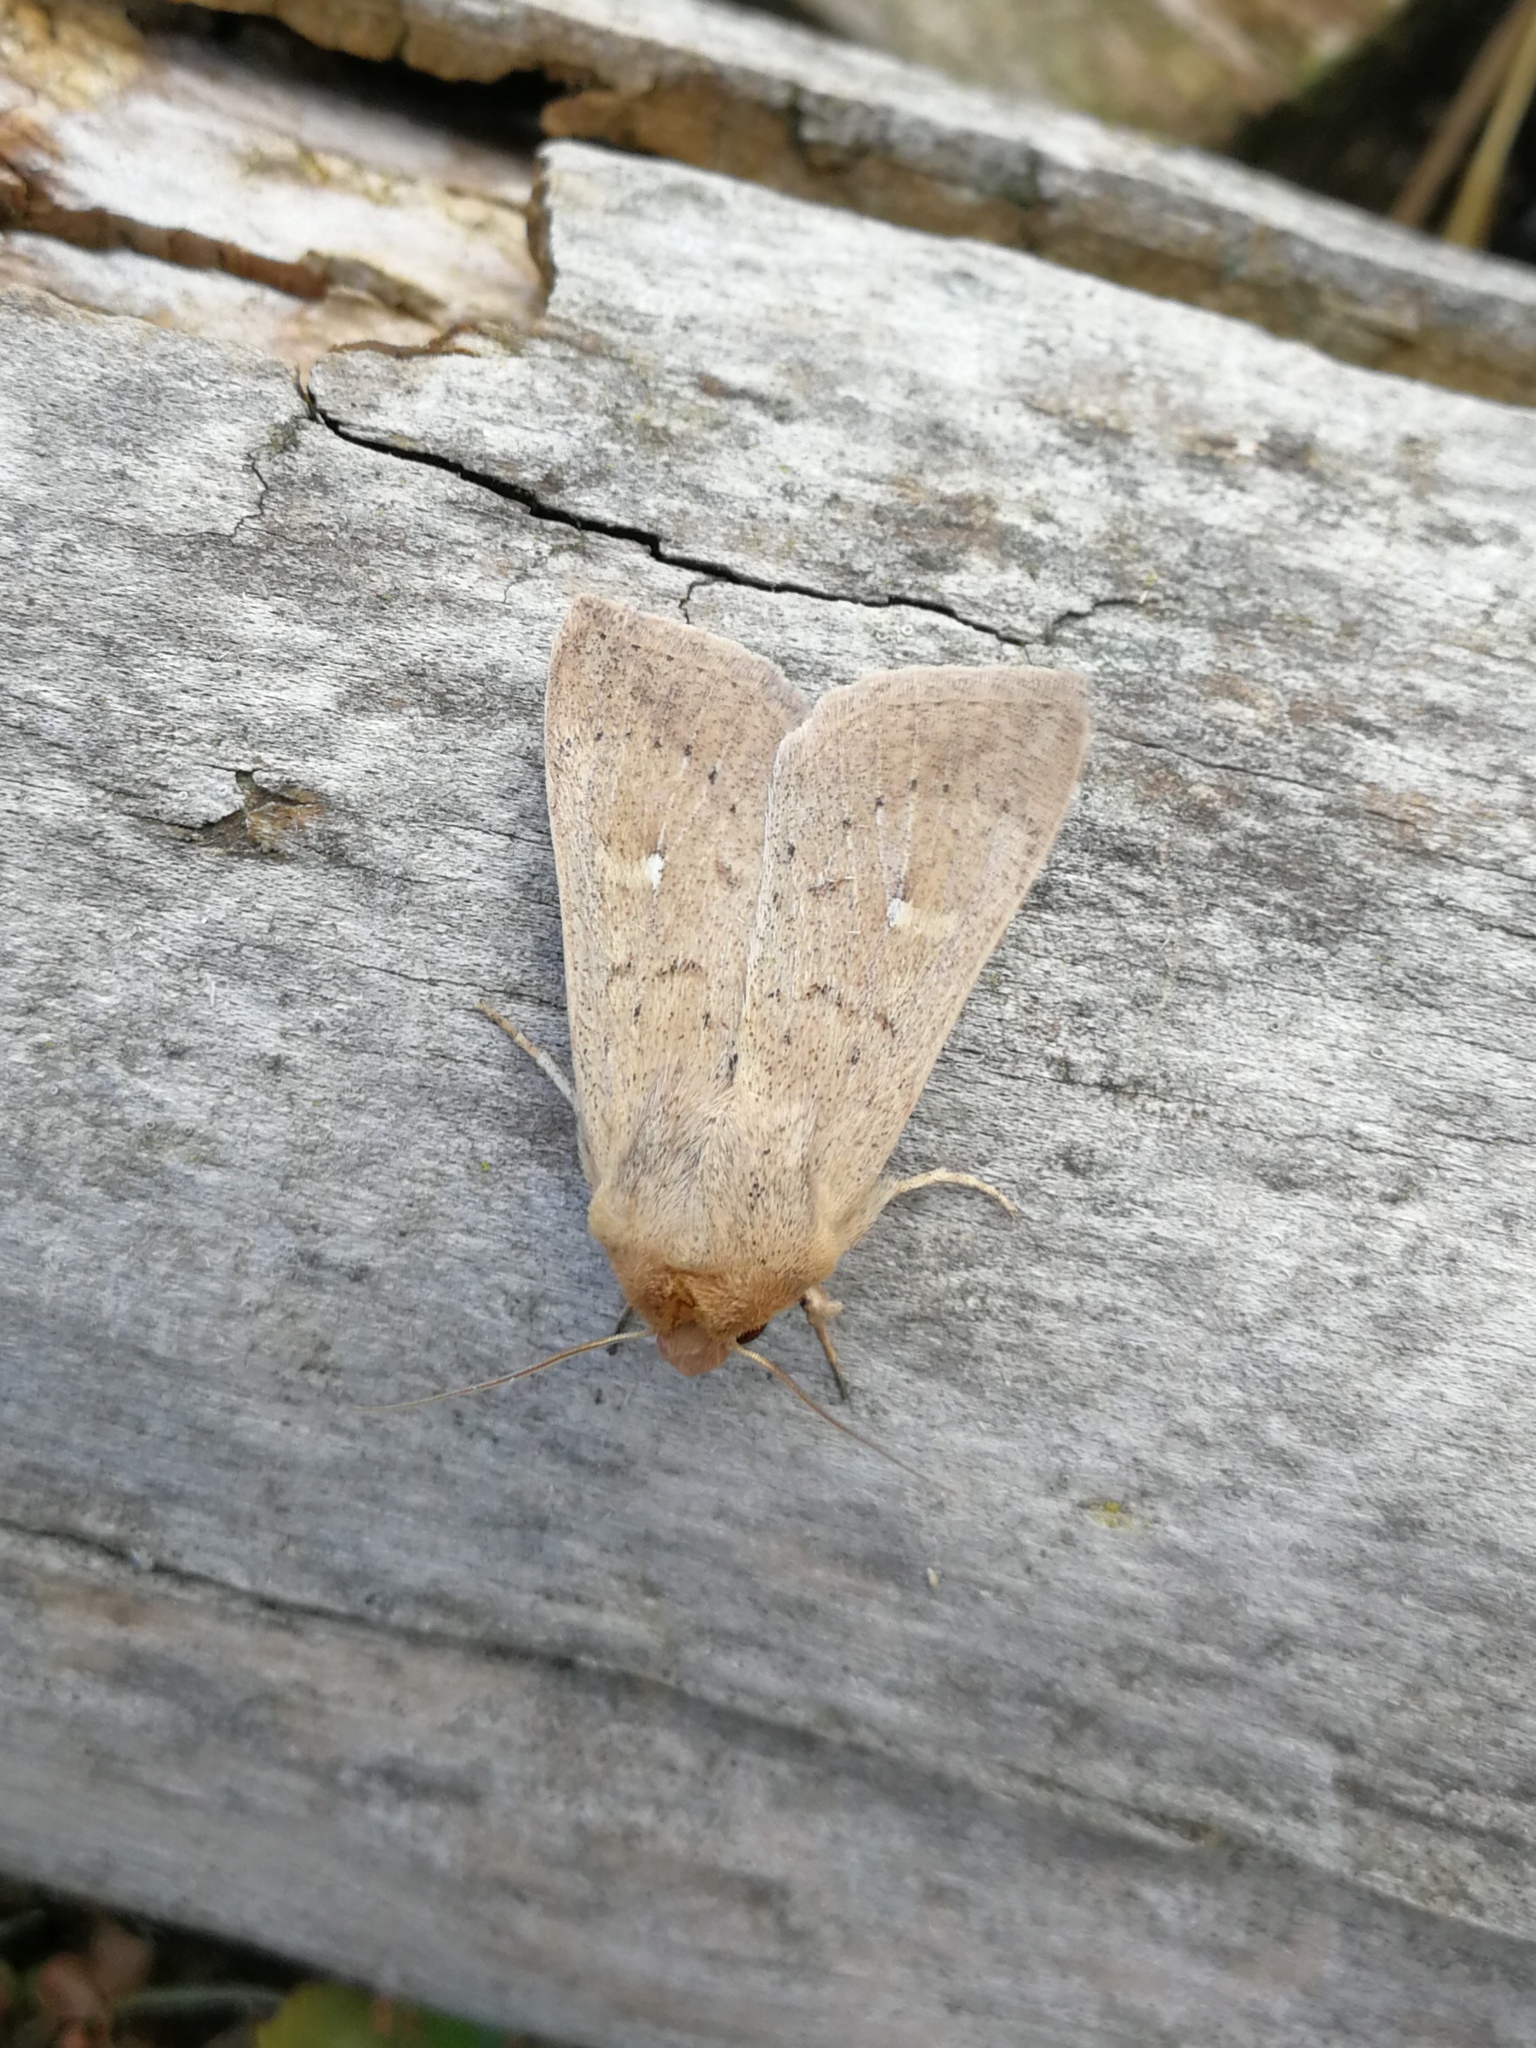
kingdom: Animalia
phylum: Arthropoda
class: Insecta
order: Lepidoptera
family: Noctuidae
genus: Mythimna
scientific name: Mythimna ferrago
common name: Clay
